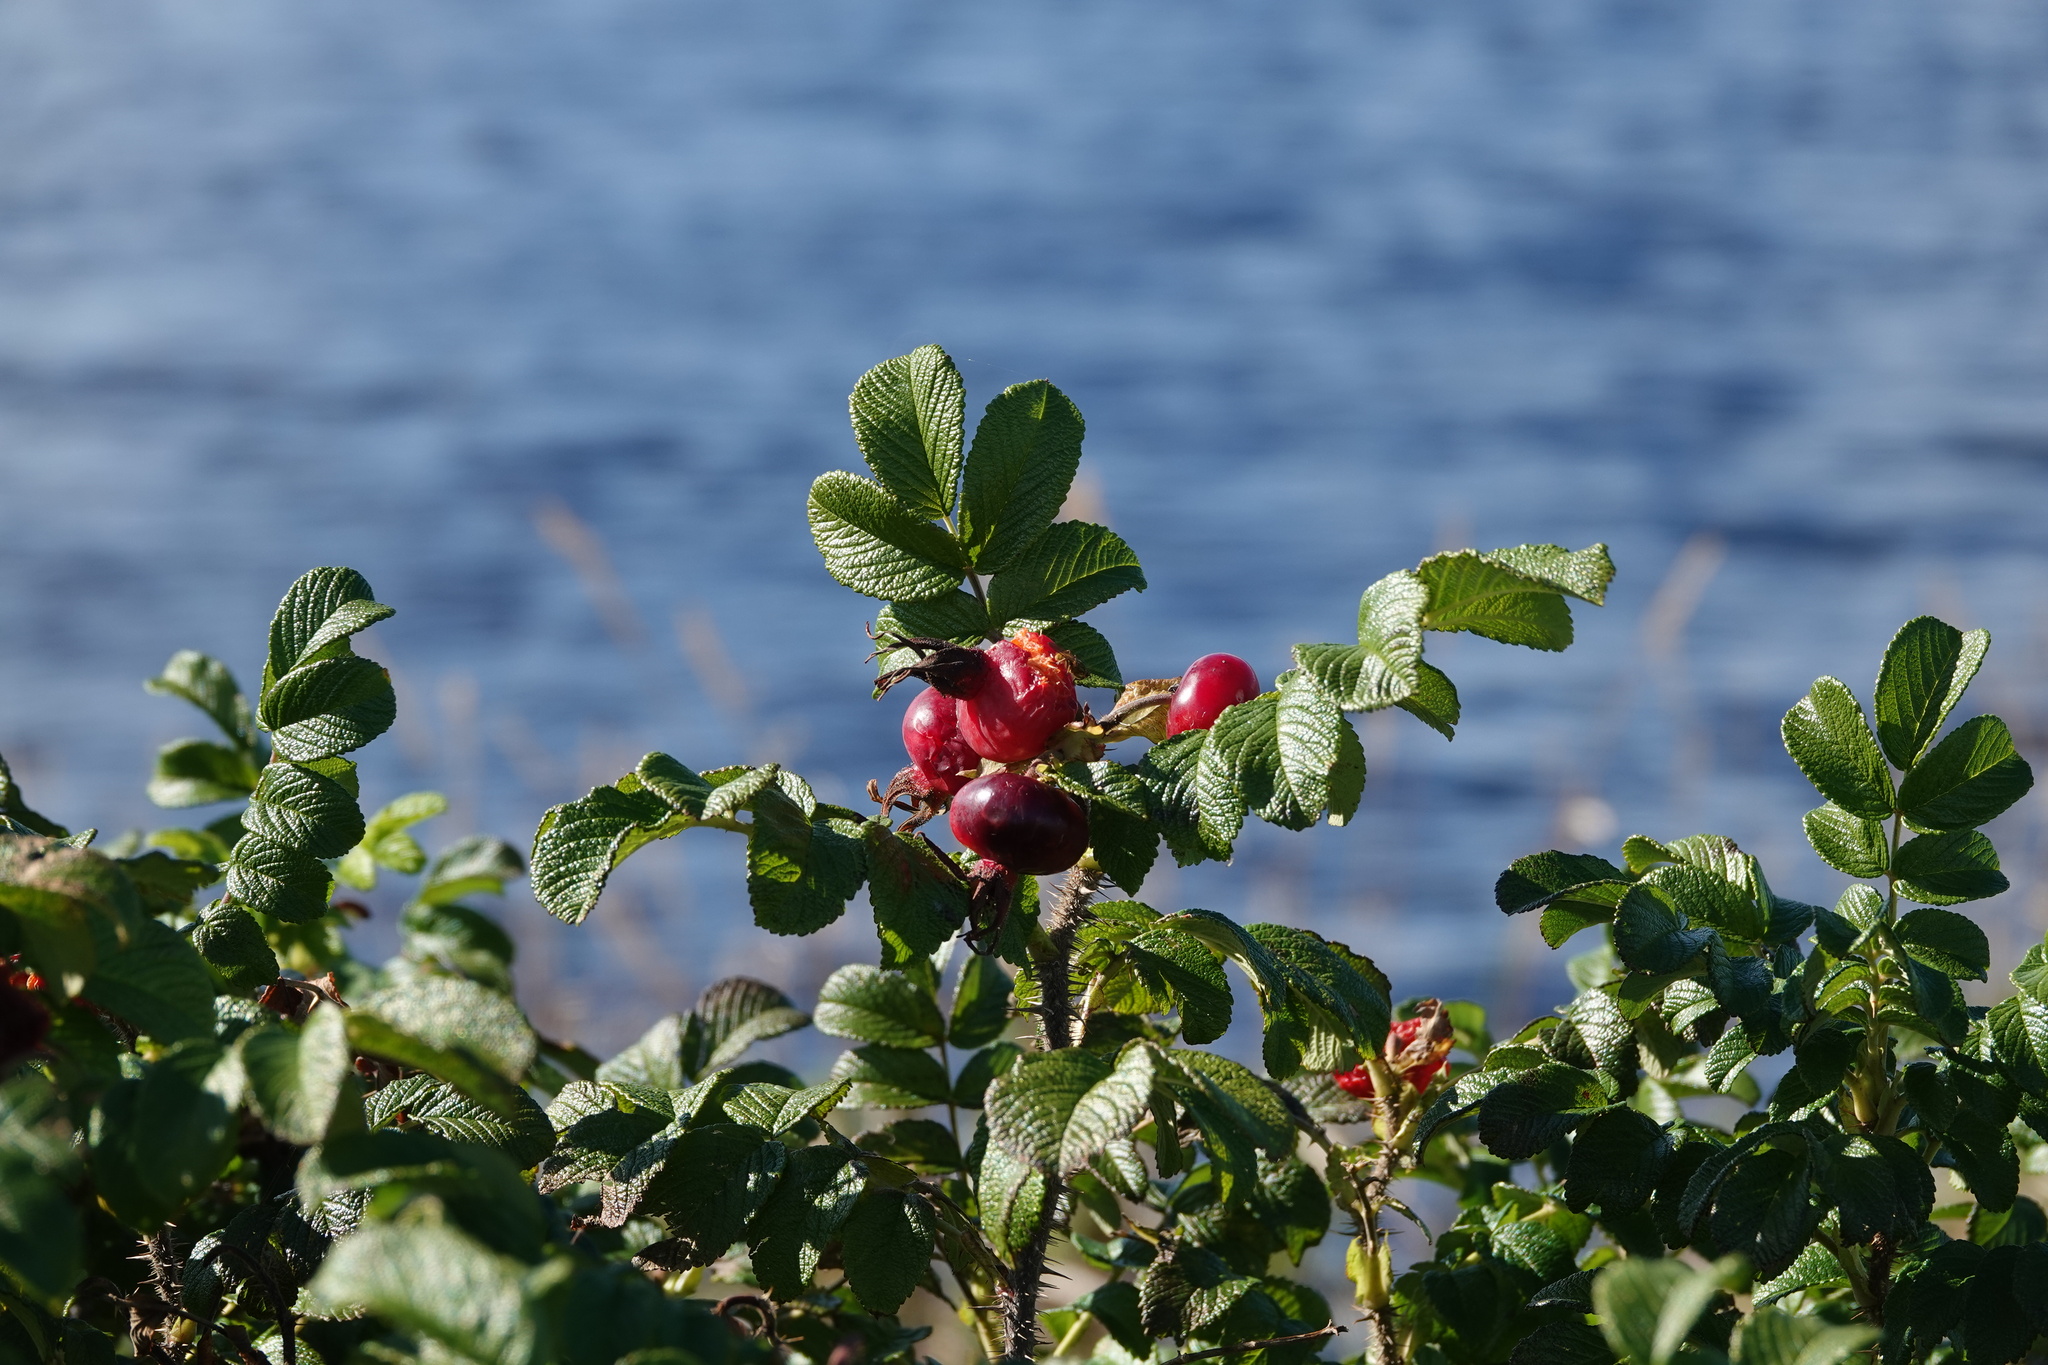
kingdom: Plantae
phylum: Tracheophyta
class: Magnoliopsida
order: Rosales
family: Rosaceae
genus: Rosa
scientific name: Rosa rugosa
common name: Japanese rose
